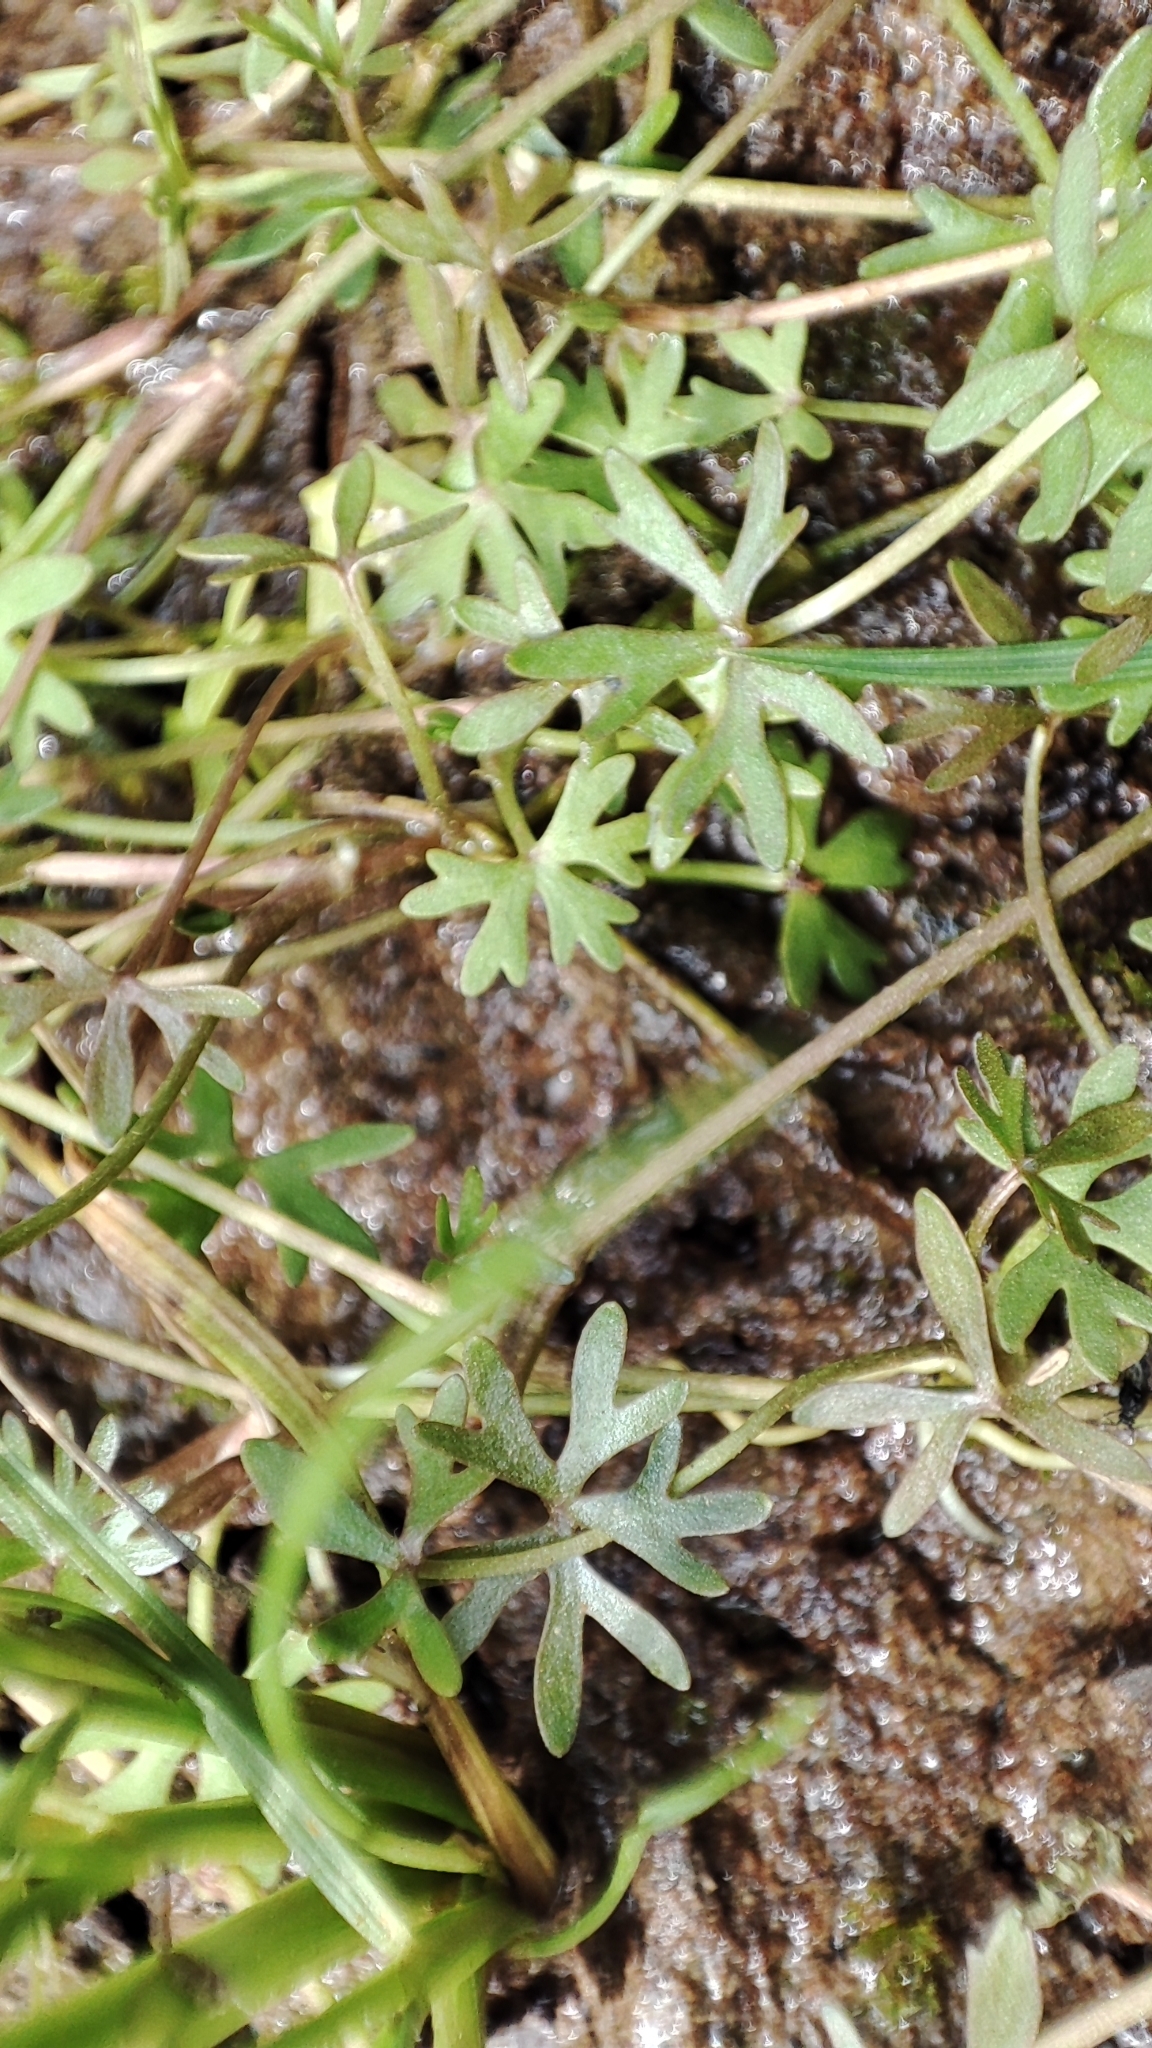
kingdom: Plantae
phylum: Tracheophyta
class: Magnoliopsida
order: Ranunculales
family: Ranunculaceae
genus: Ranunculus
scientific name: Ranunculus gmelinii
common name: Gmelin's buttercup
